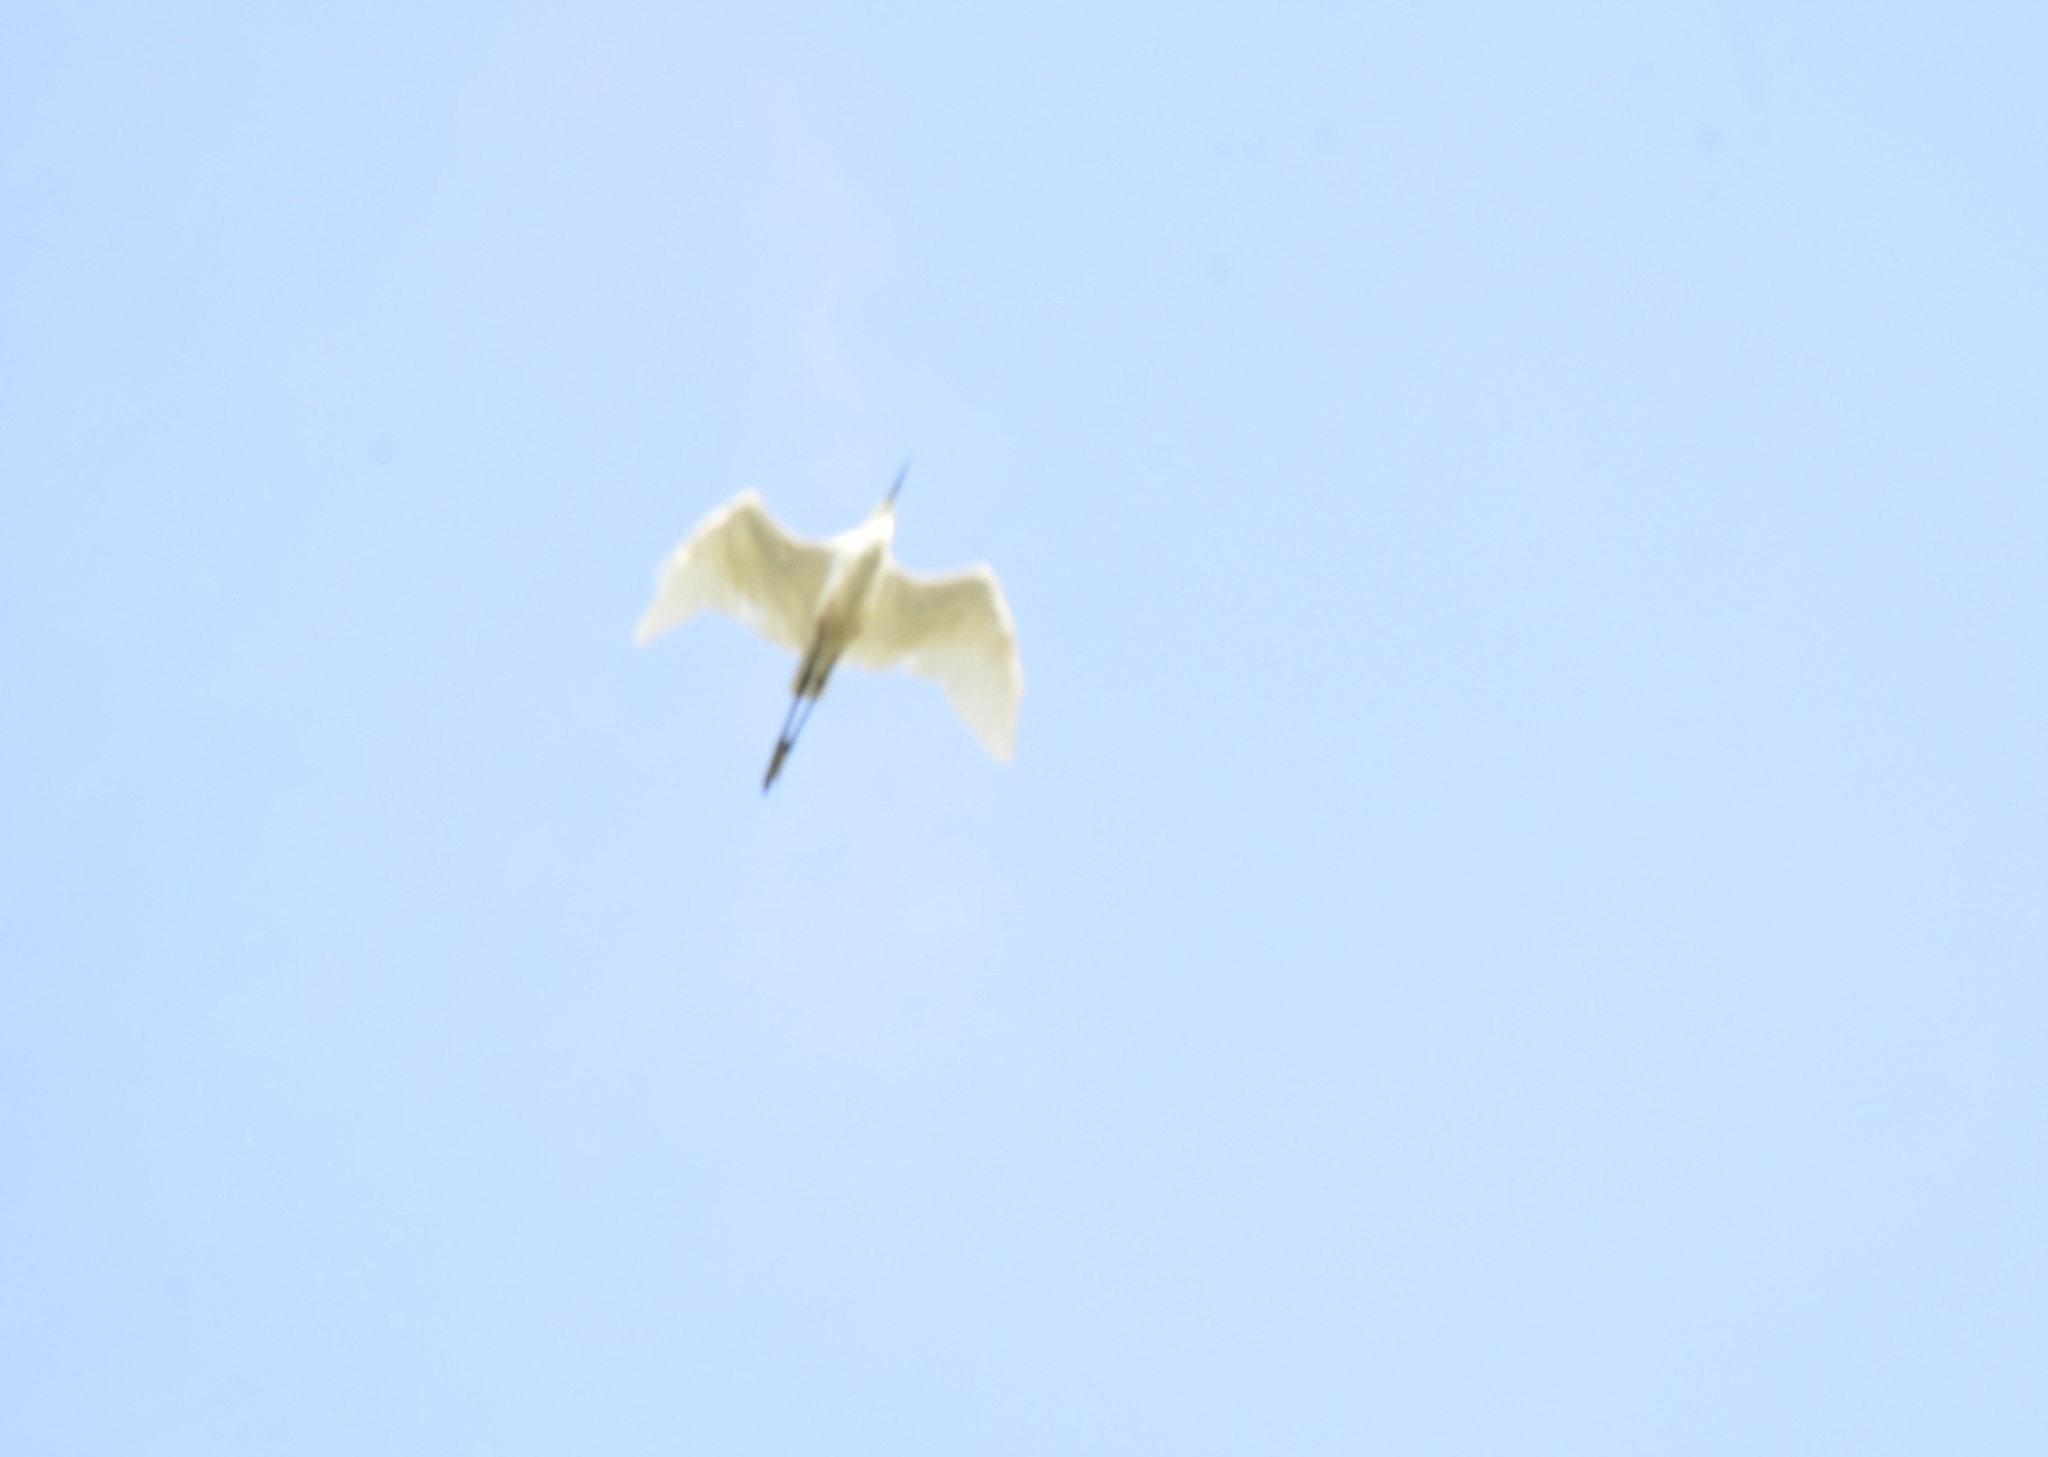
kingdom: Animalia
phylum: Chordata
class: Aves
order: Pelecaniformes
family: Ardeidae
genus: Egretta
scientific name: Egretta garzetta
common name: Little egret
